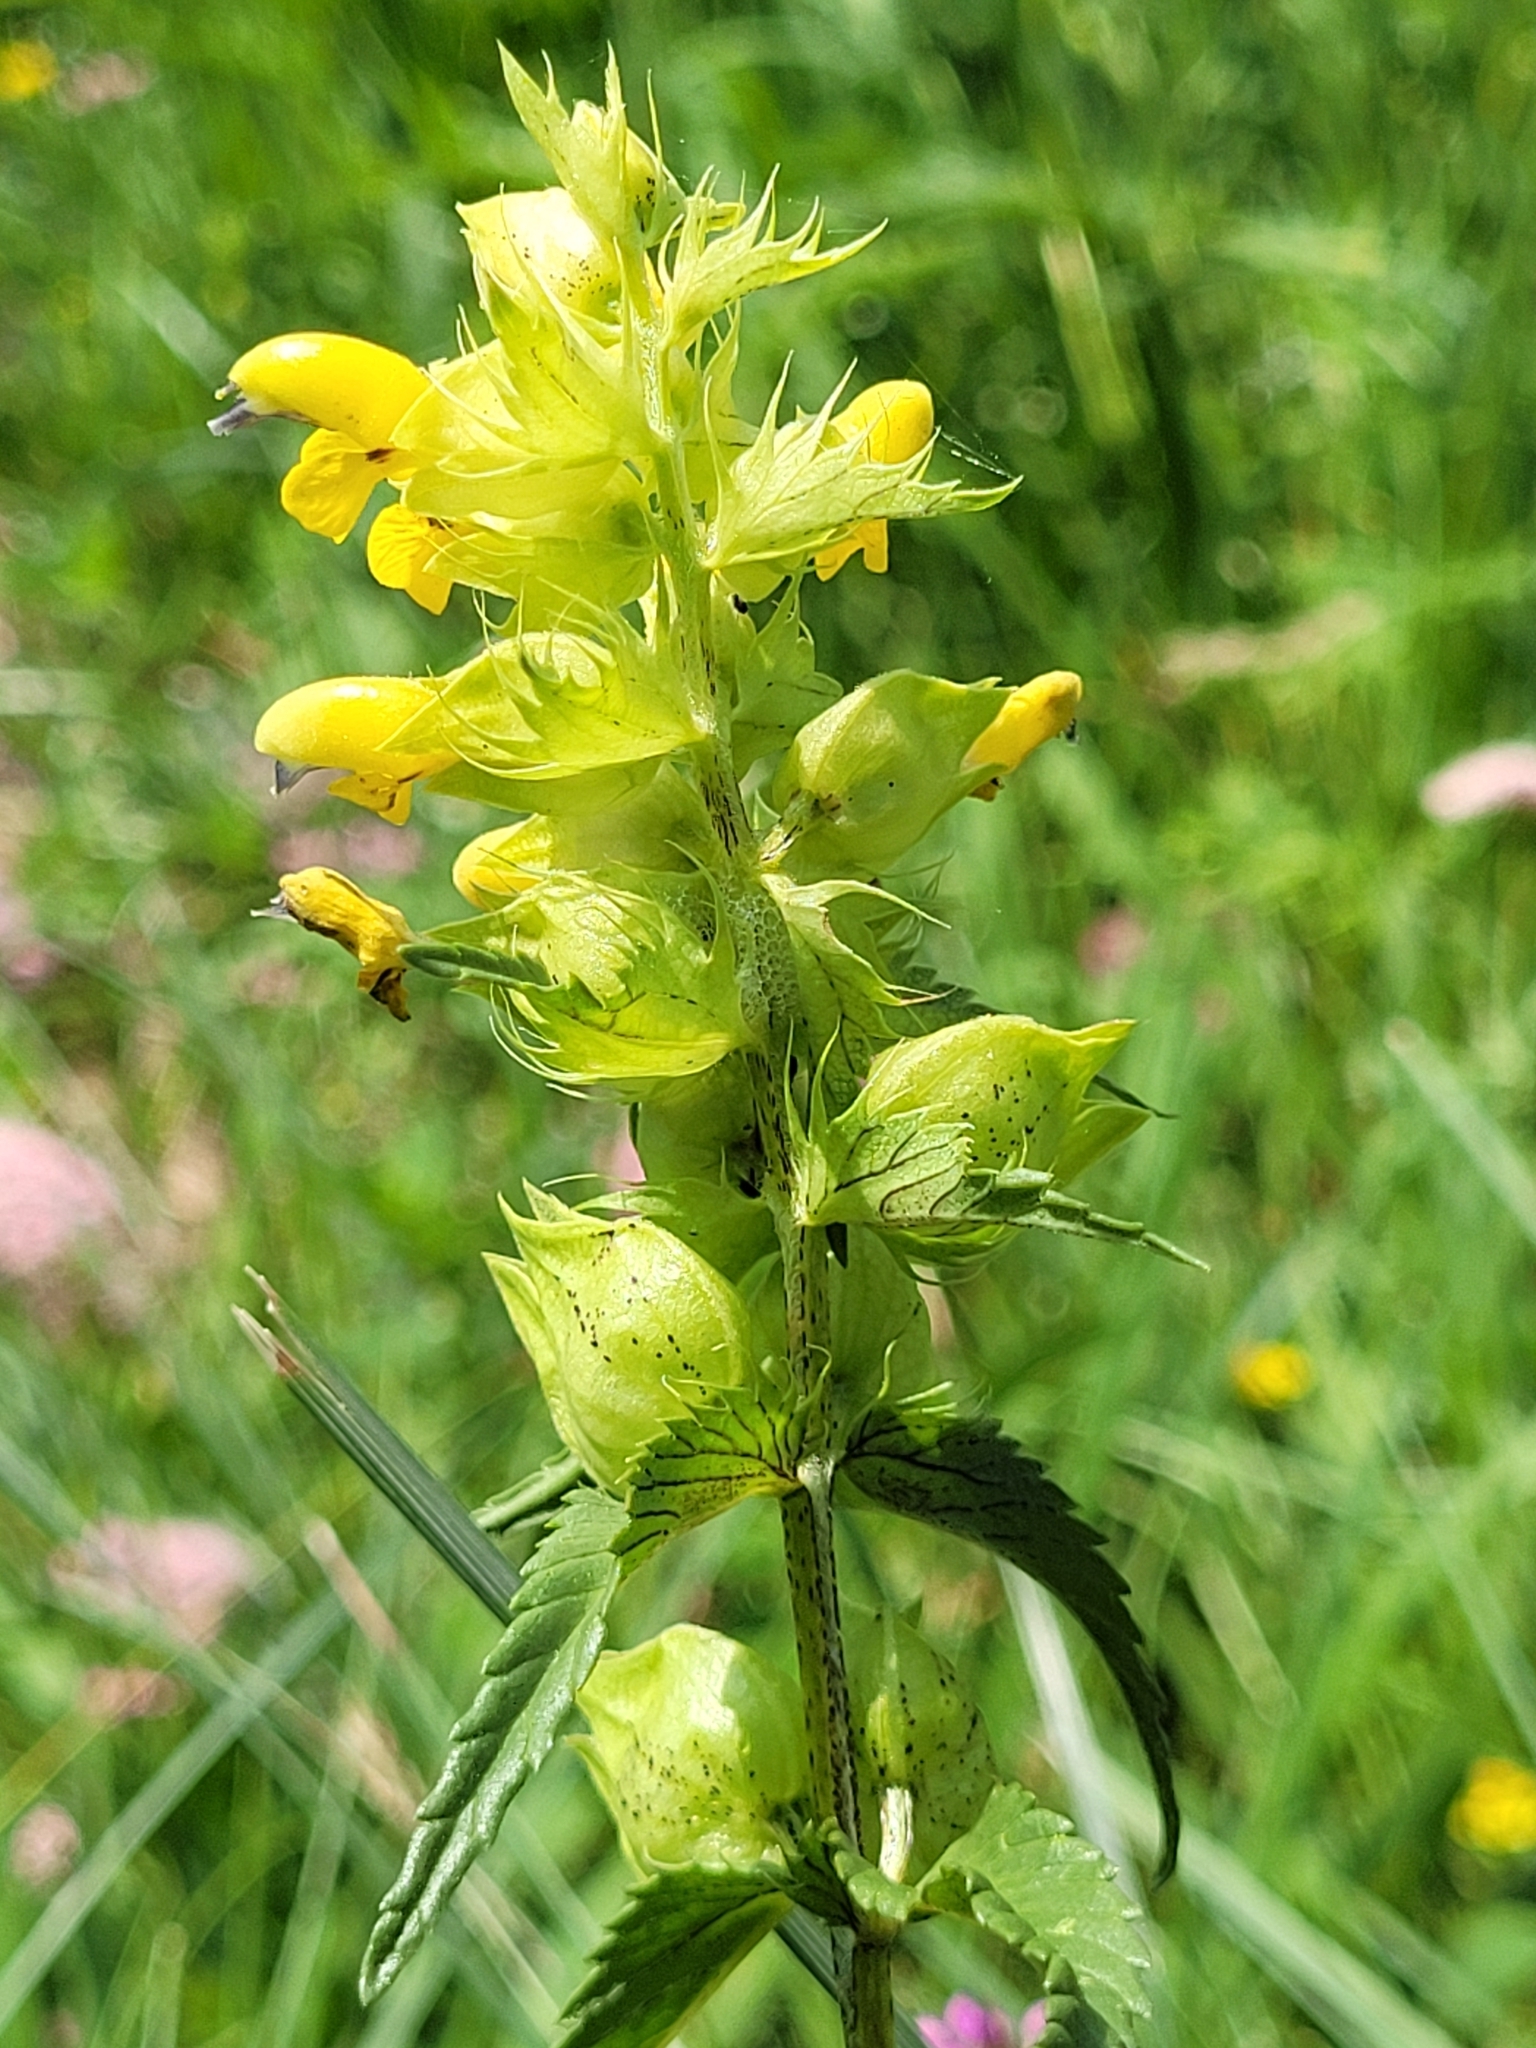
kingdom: Plantae
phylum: Tracheophyta
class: Magnoliopsida
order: Lamiales
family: Orobanchaceae
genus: Rhinanthus
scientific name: Rhinanthus glacialis
